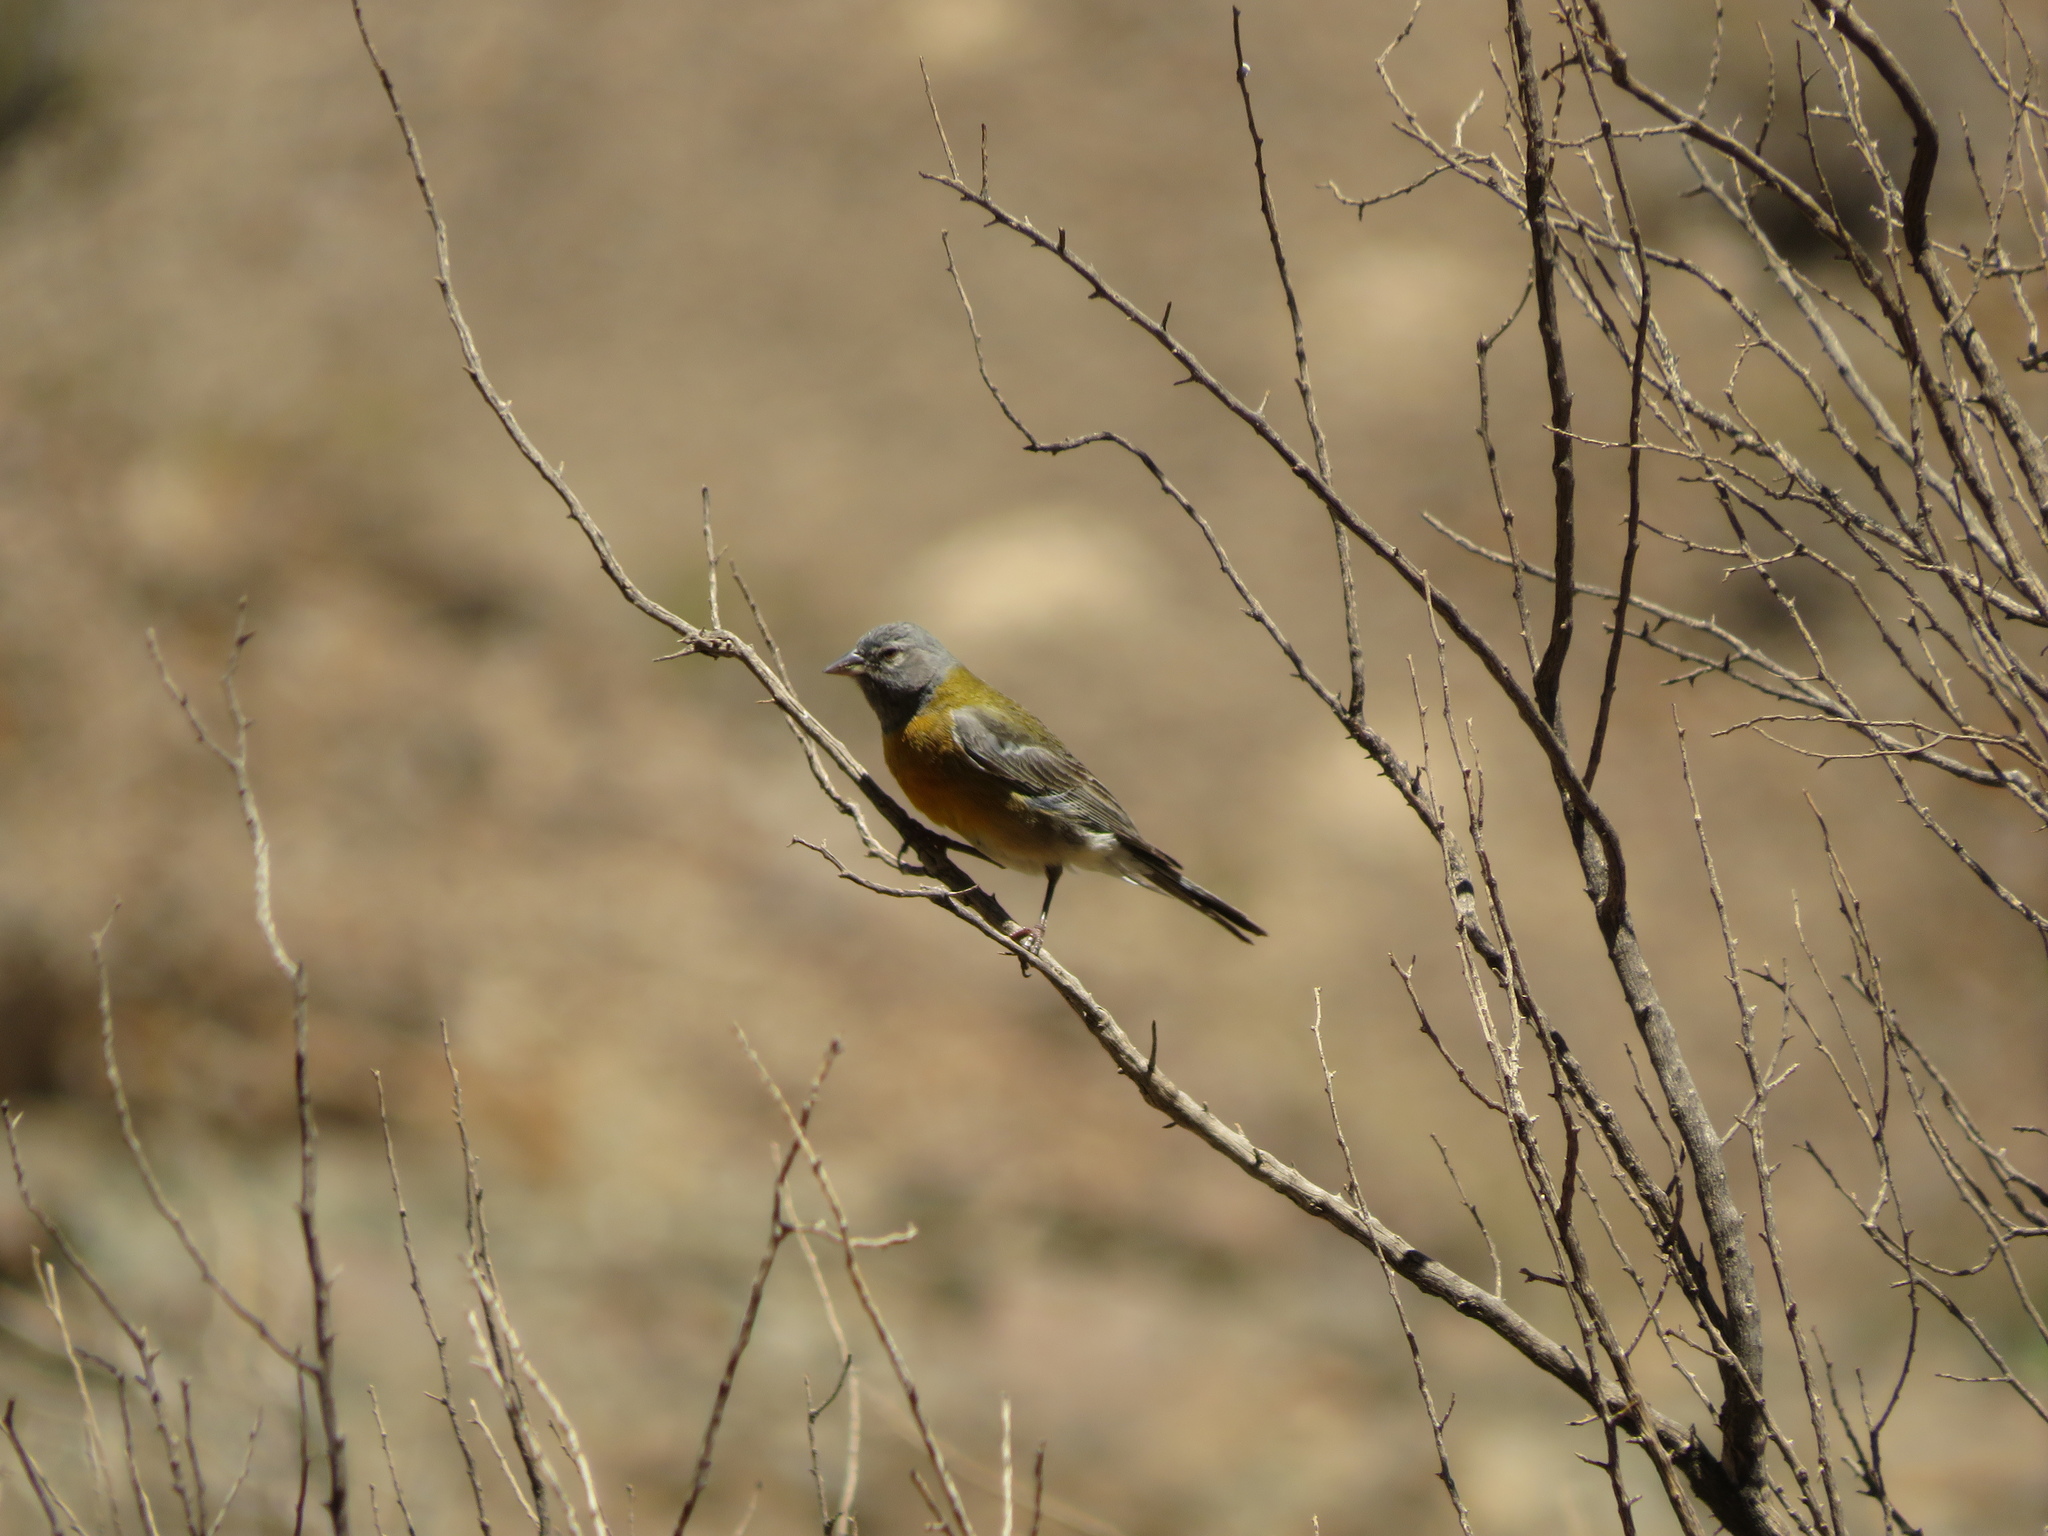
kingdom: Animalia
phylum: Chordata
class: Aves
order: Passeriformes
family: Thraupidae
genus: Phrygilus
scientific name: Phrygilus gayi
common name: Grey-hooded sierra finch
